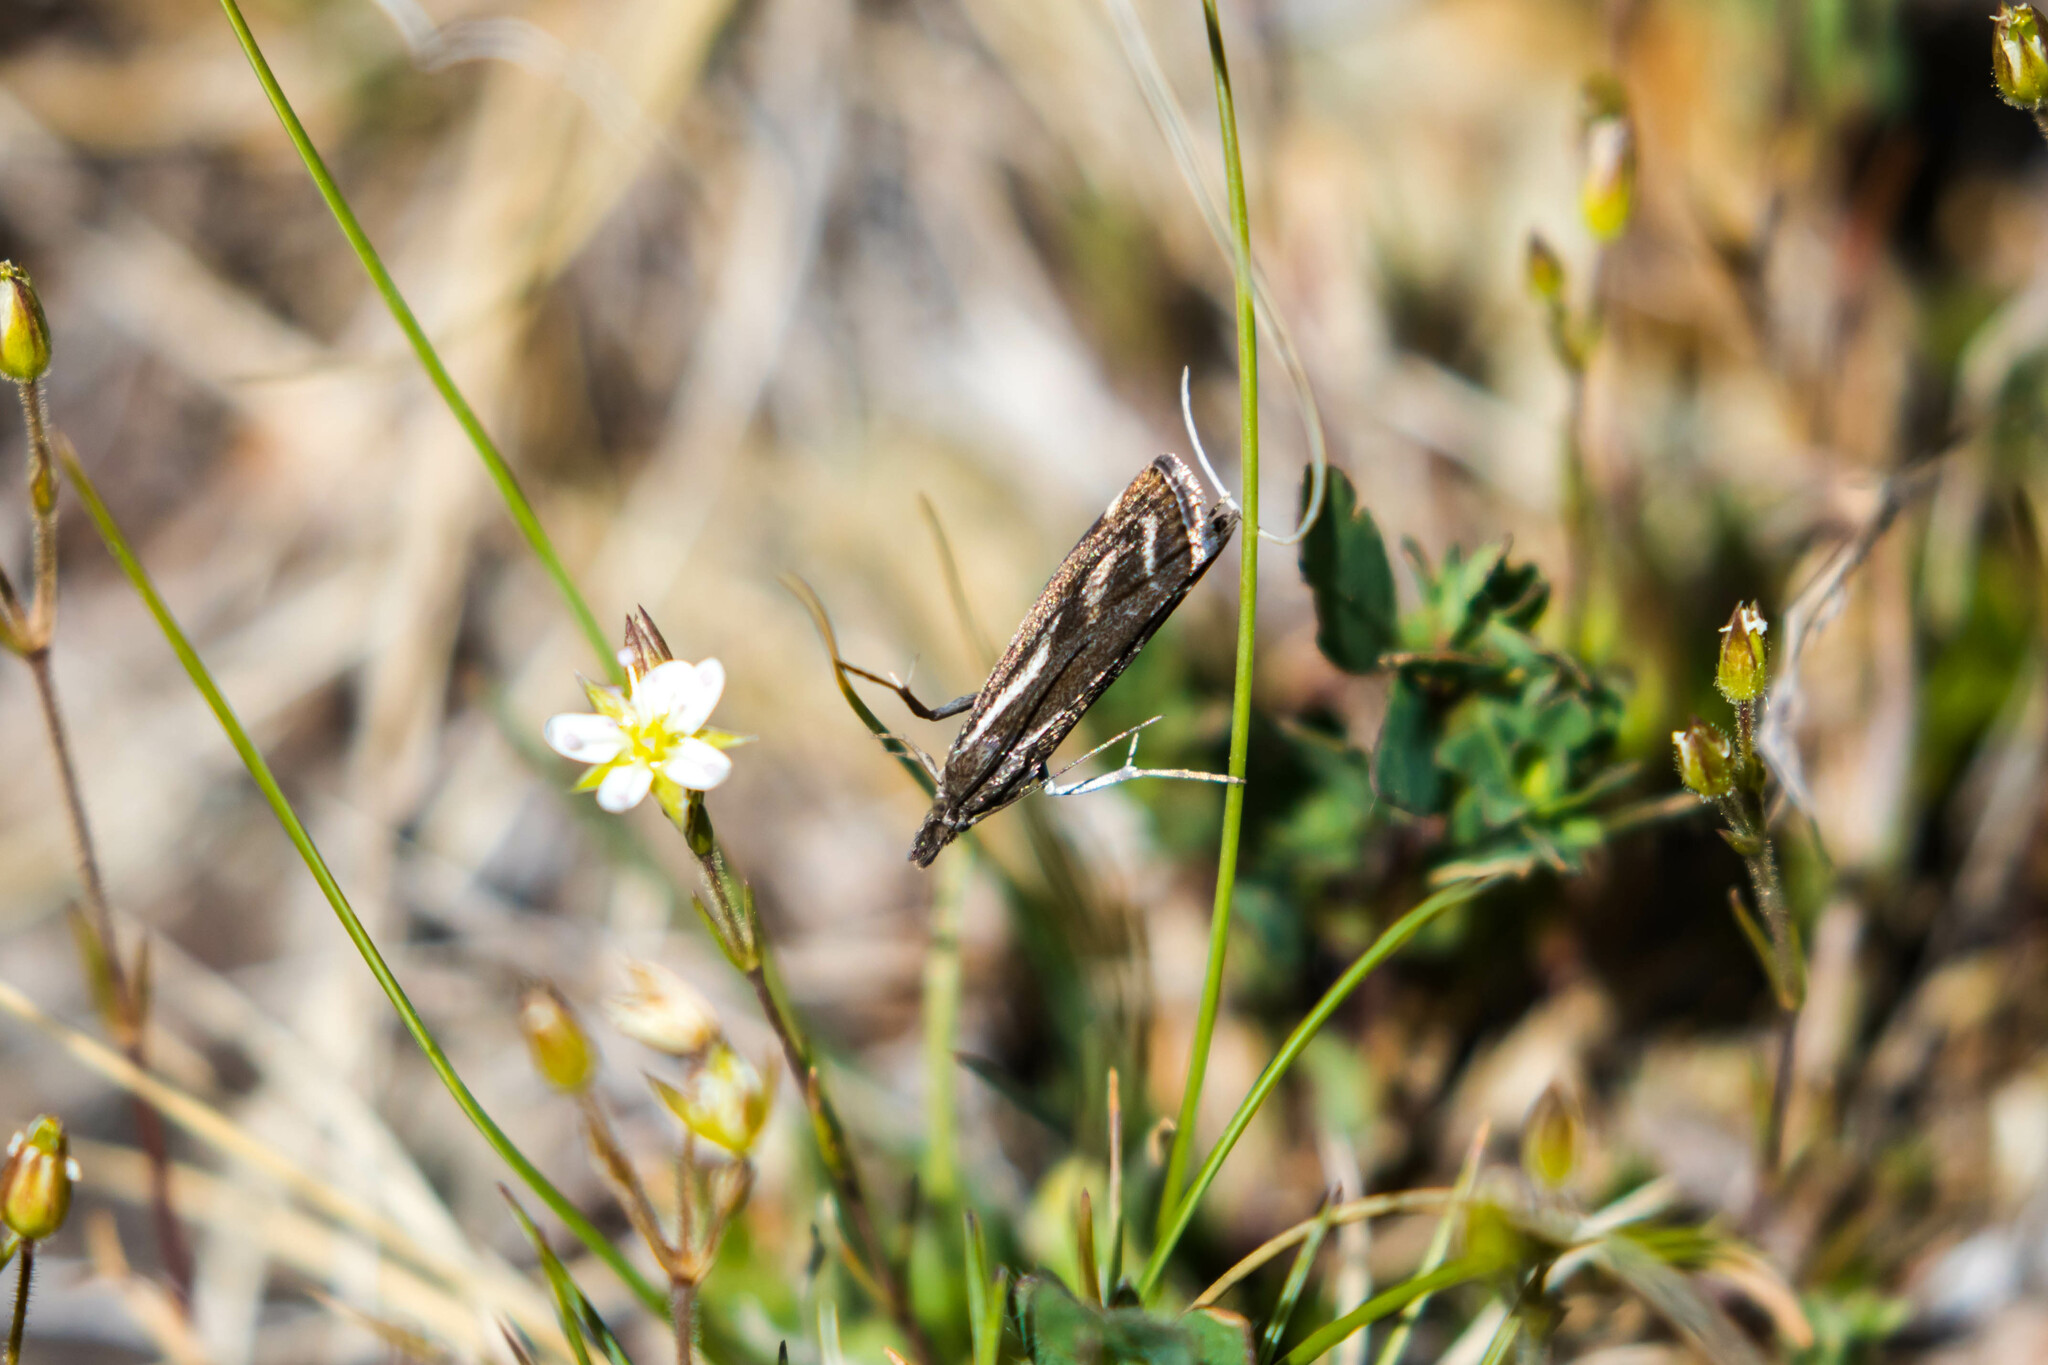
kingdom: Animalia
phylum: Arthropoda
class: Insecta
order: Lepidoptera
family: Crambidae
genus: Catoptria
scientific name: Catoptria luctiferella
